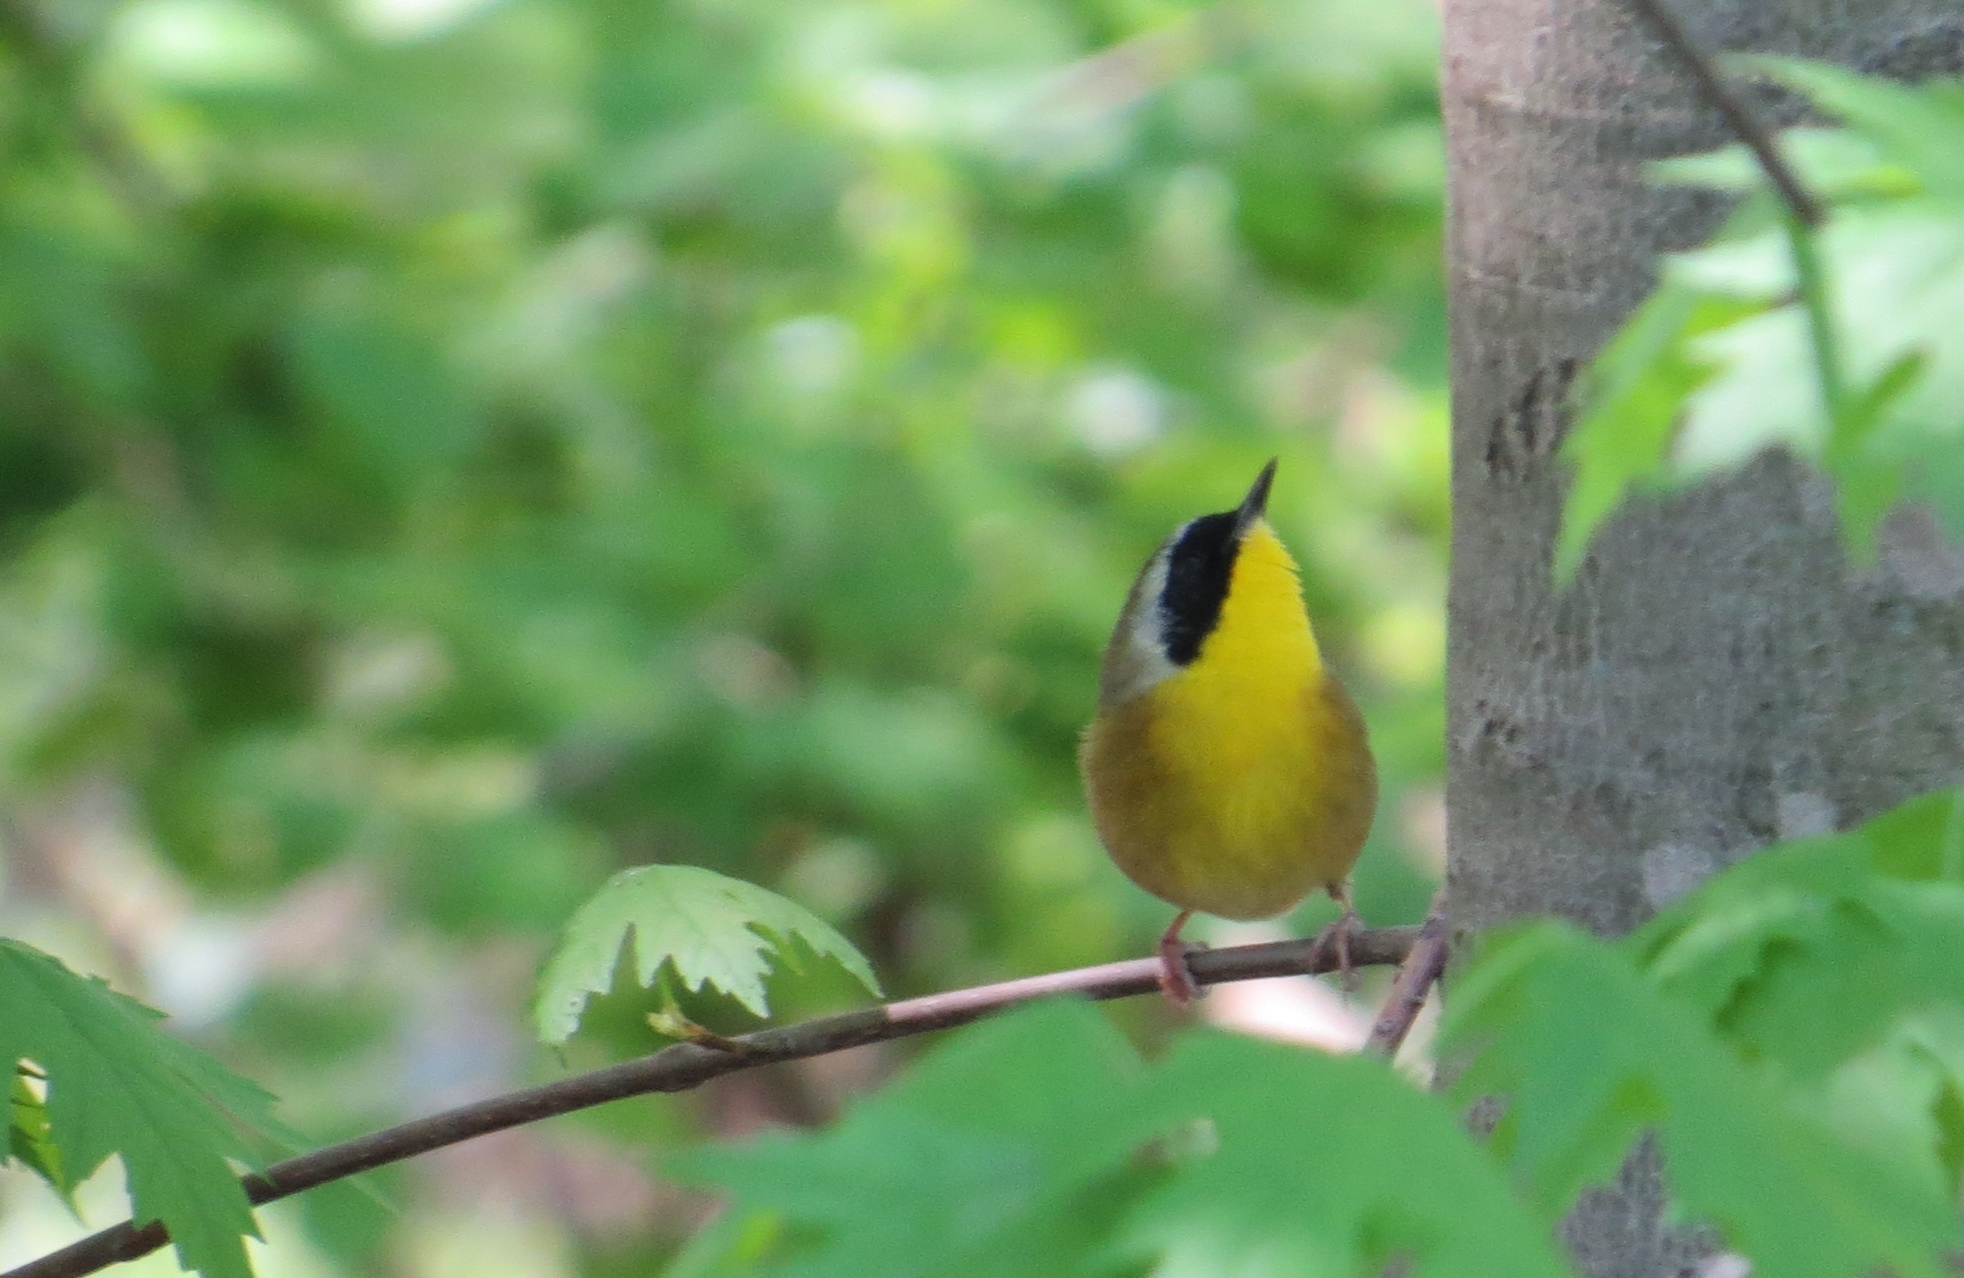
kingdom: Animalia
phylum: Chordata
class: Aves
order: Passeriformes
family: Parulidae
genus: Geothlypis
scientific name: Geothlypis trichas
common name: Common yellowthroat
